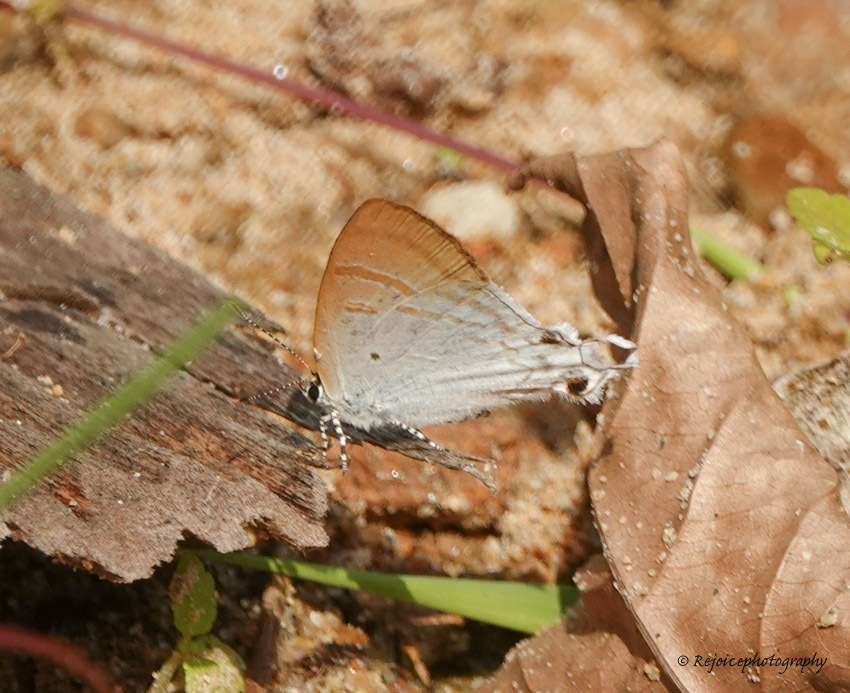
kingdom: Animalia
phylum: Arthropoda
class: Insecta
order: Lepidoptera
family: Lycaenidae
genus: Zeltus
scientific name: Zeltus amasa
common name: Fluffy tit
